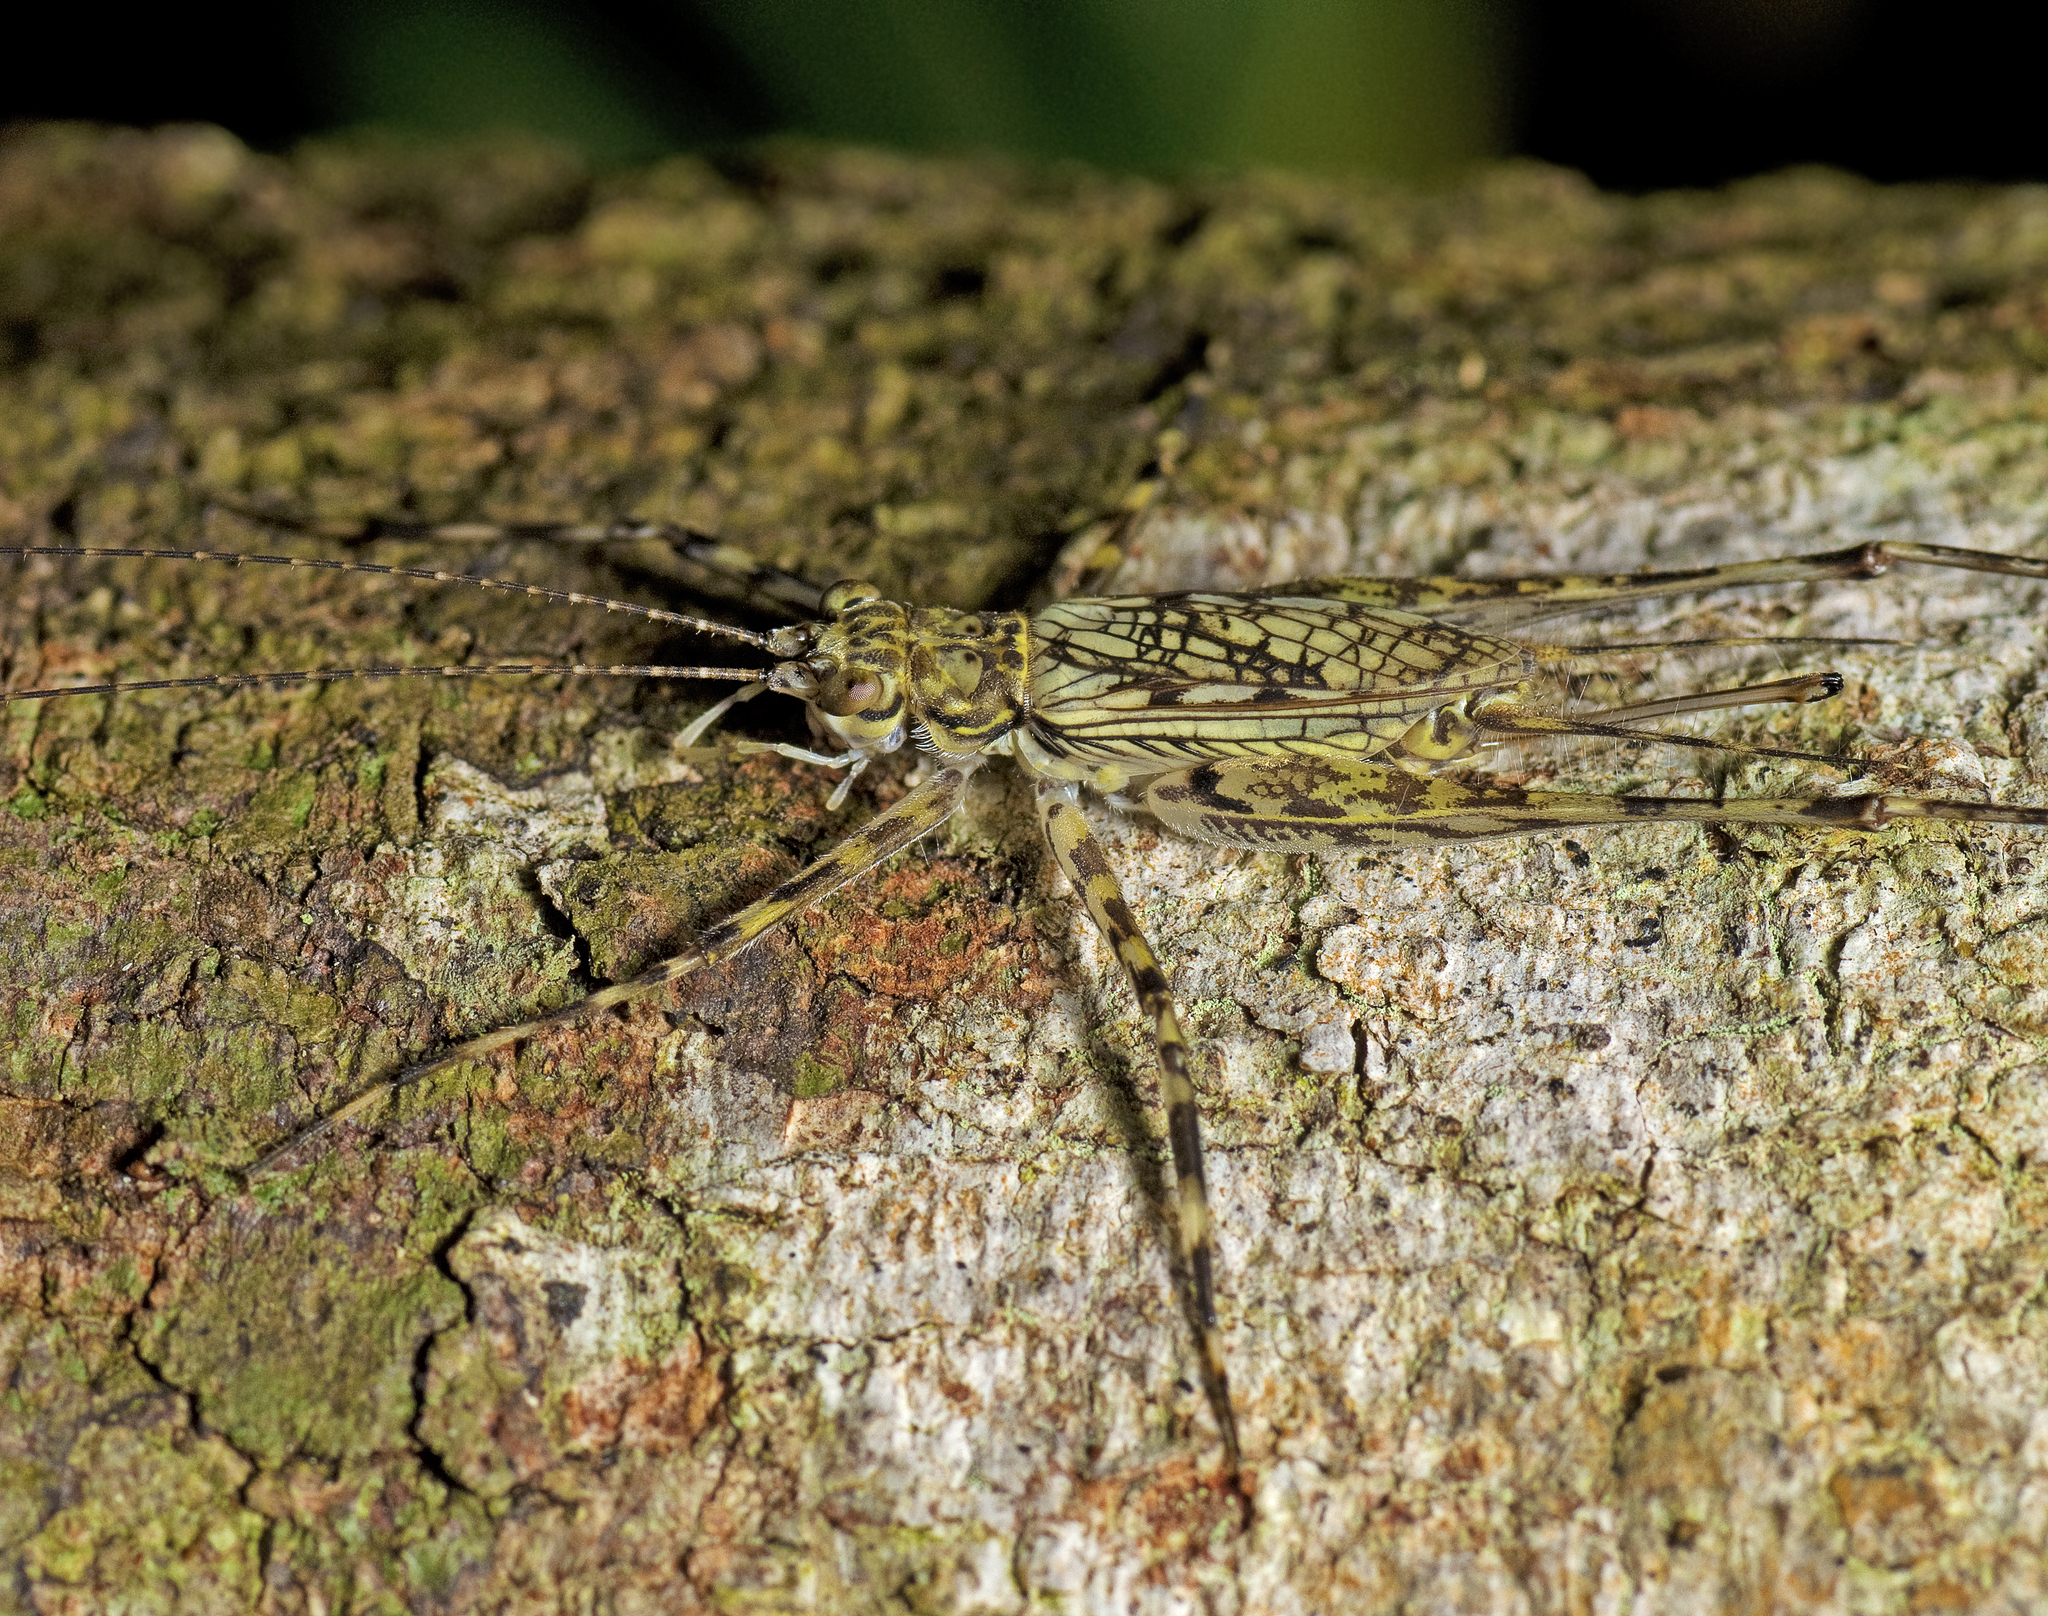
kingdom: Animalia
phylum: Arthropoda
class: Insecta
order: Orthoptera
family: Phalangopsidae
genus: Pseudotrigonidium
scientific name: Pseudotrigonidium australis
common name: Kuranda tree runner
